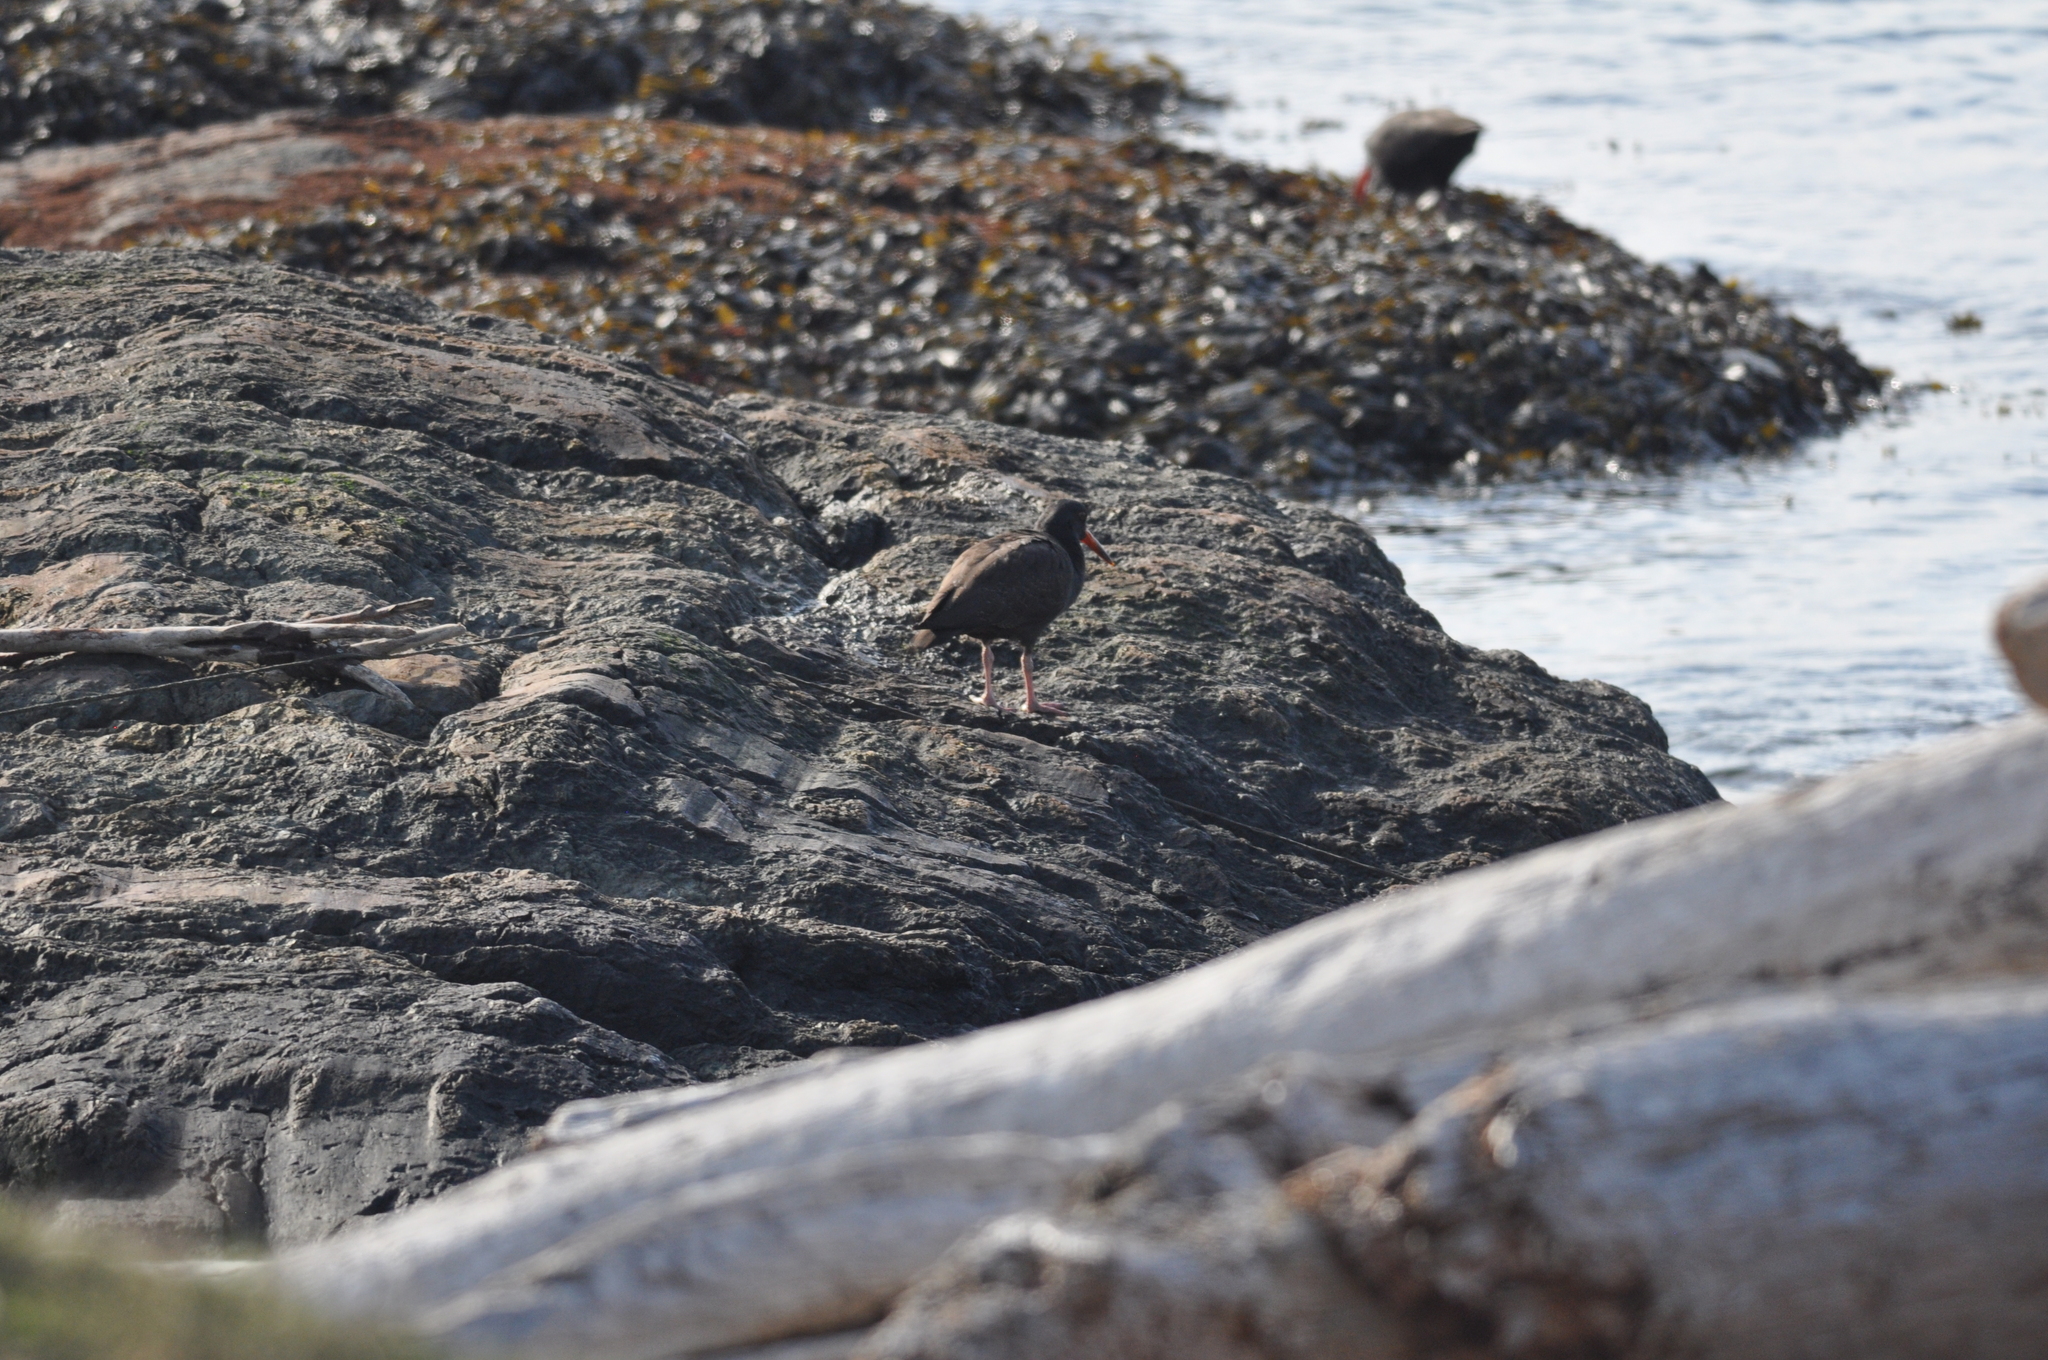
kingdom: Animalia
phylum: Chordata
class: Aves
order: Charadriiformes
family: Haematopodidae
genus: Haematopus
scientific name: Haematopus bachmani
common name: Black oystercatcher
